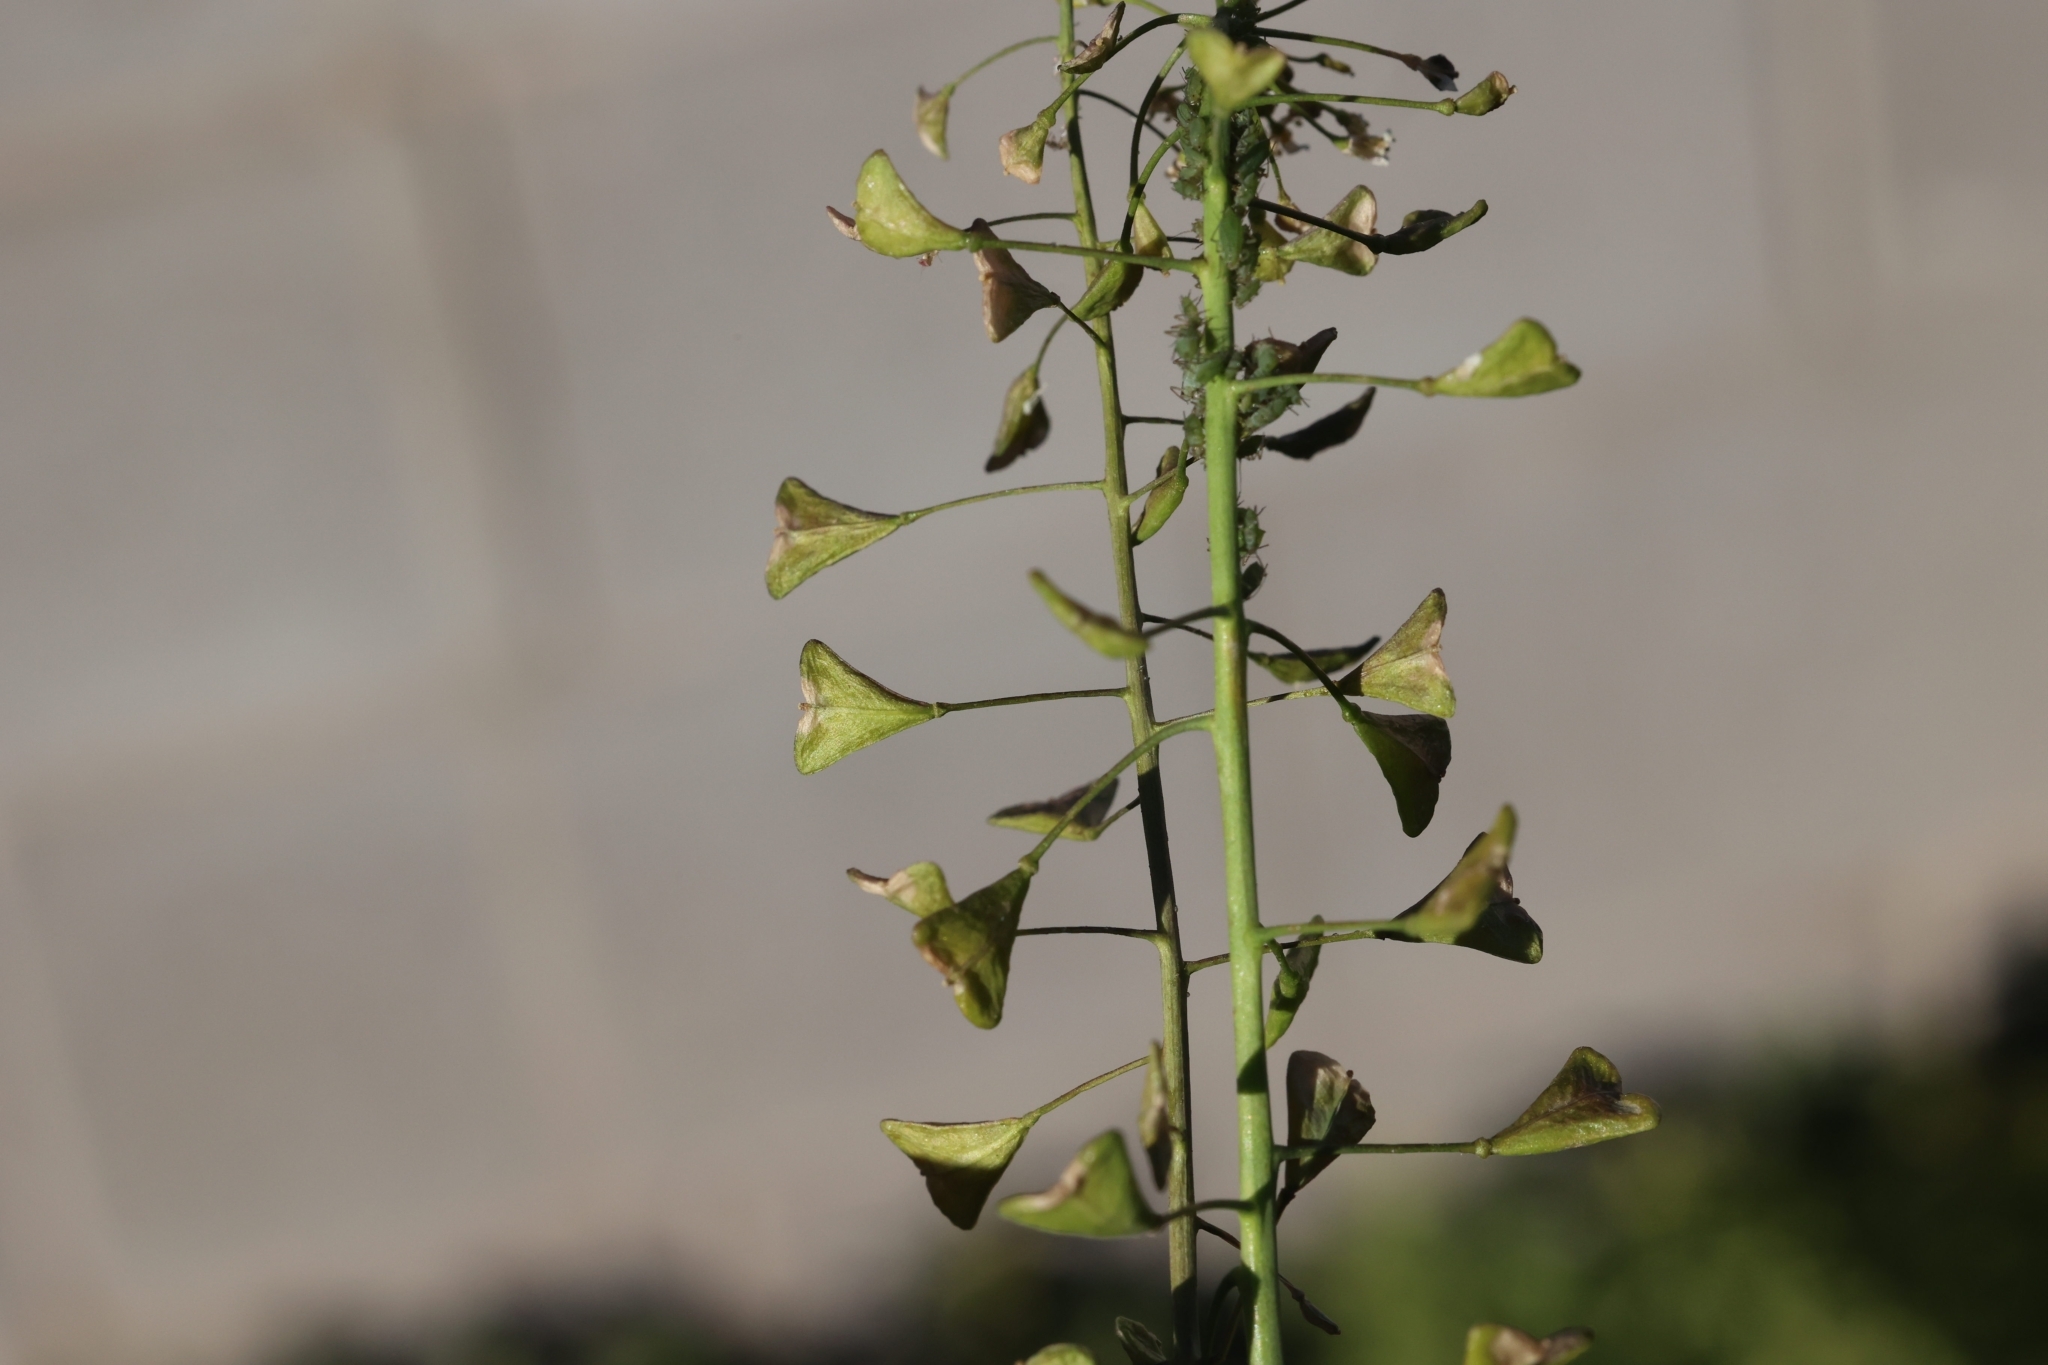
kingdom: Plantae
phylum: Tracheophyta
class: Magnoliopsida
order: Brassicales
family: Brassicaceae
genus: Capsella
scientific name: Capsella bursa-pastoris
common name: Shepherd's purse
